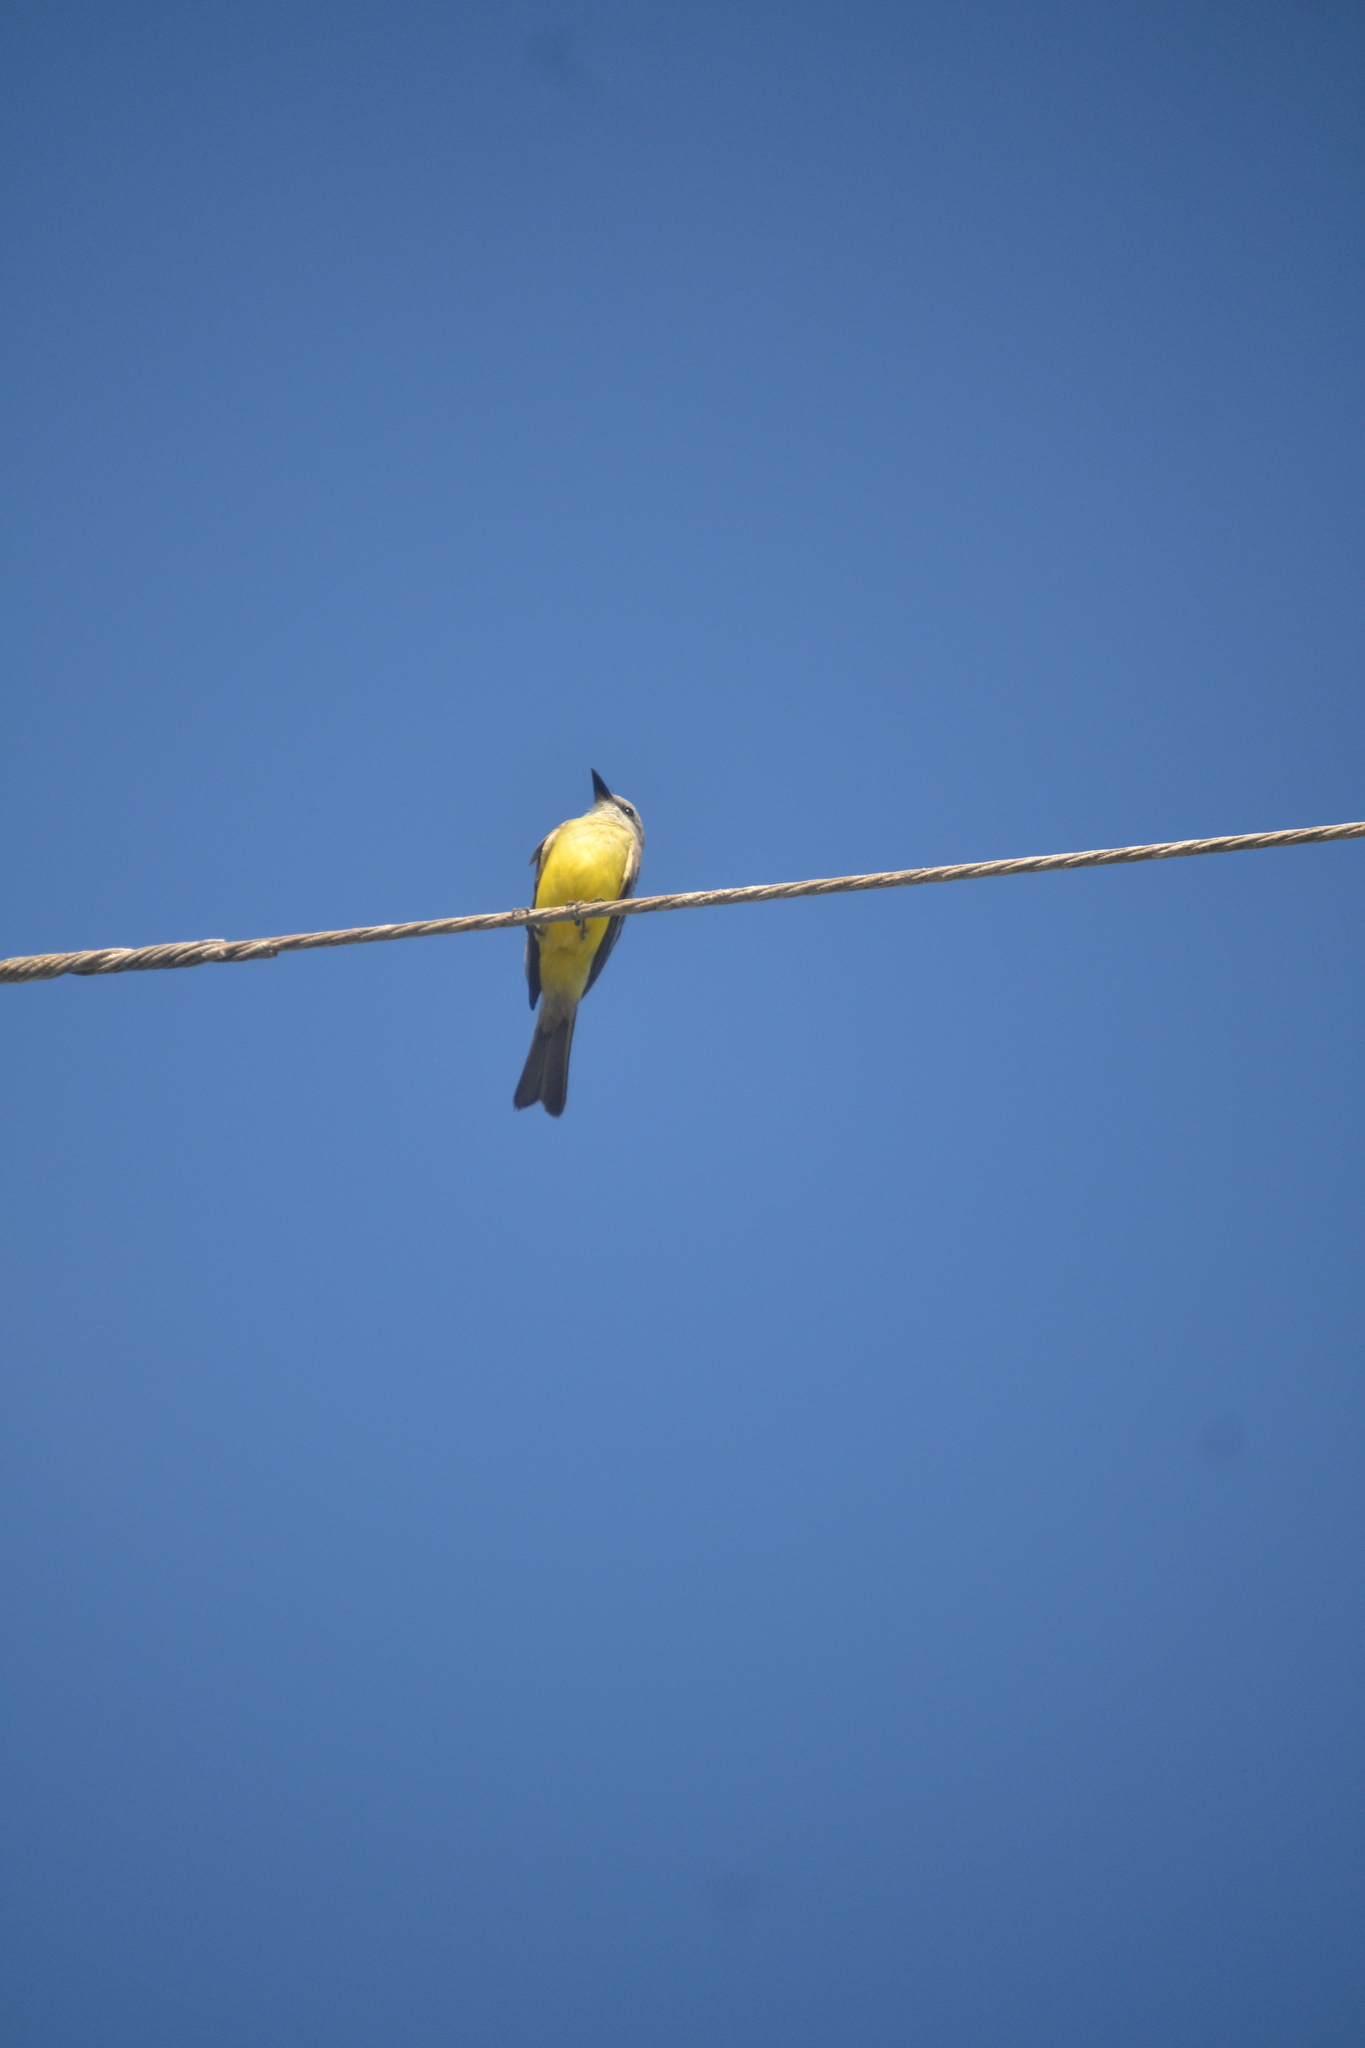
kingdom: Animalia
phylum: Chordata
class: Aves
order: Passeriformes
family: Tyrannidae
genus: Tyrannus
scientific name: Tyrannus
